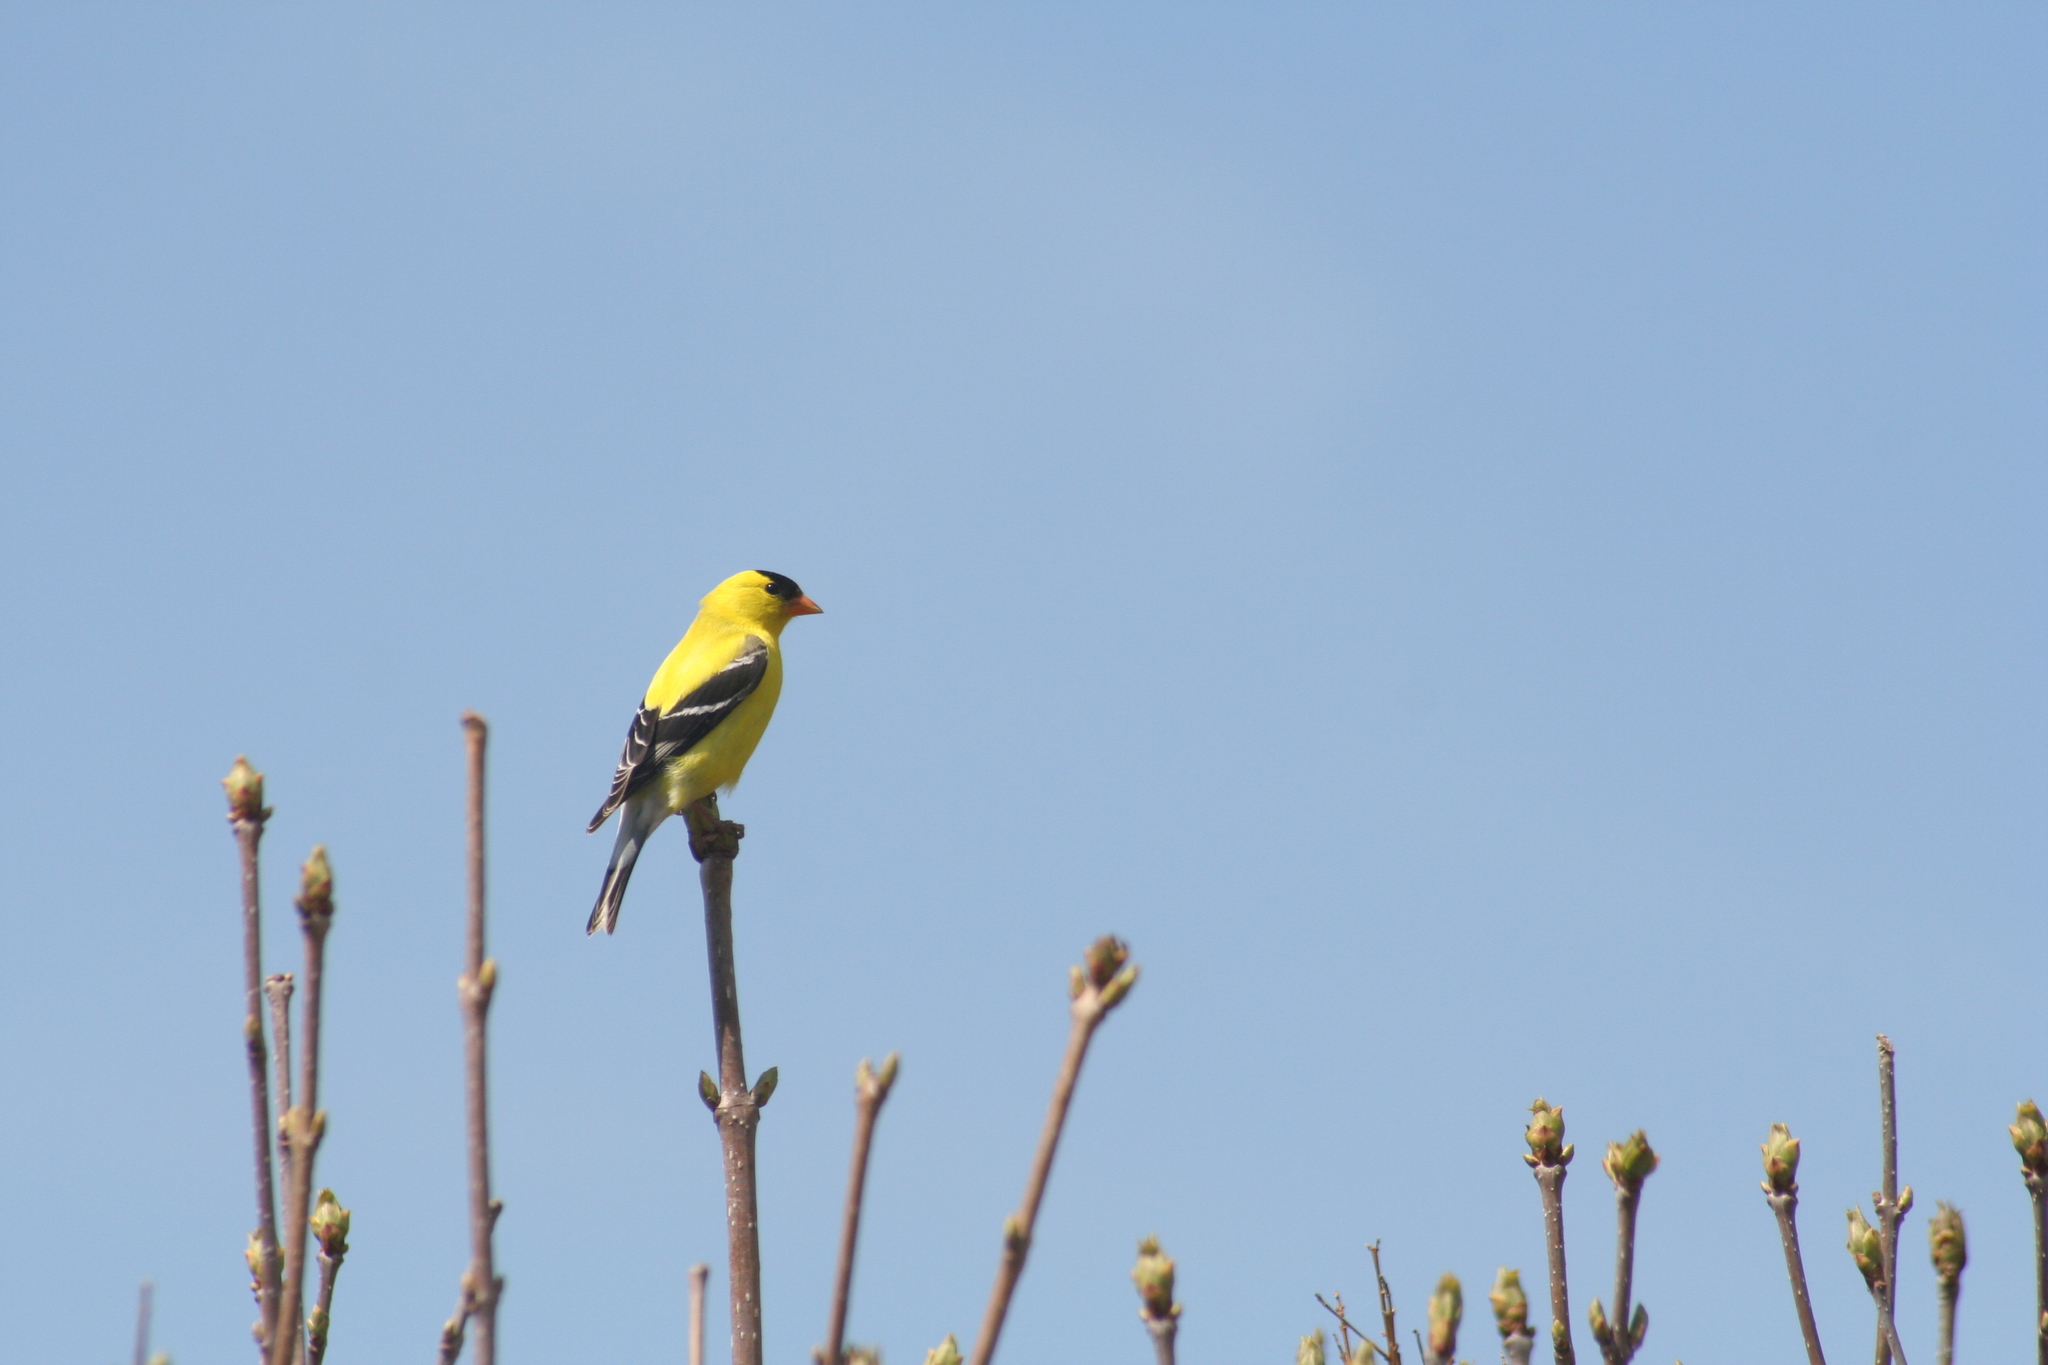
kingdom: Animalia
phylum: Chordata
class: Aves
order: Passeriformes
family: Fringillidae
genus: Spinus
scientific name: Spinus tristis
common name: American goldfinch
